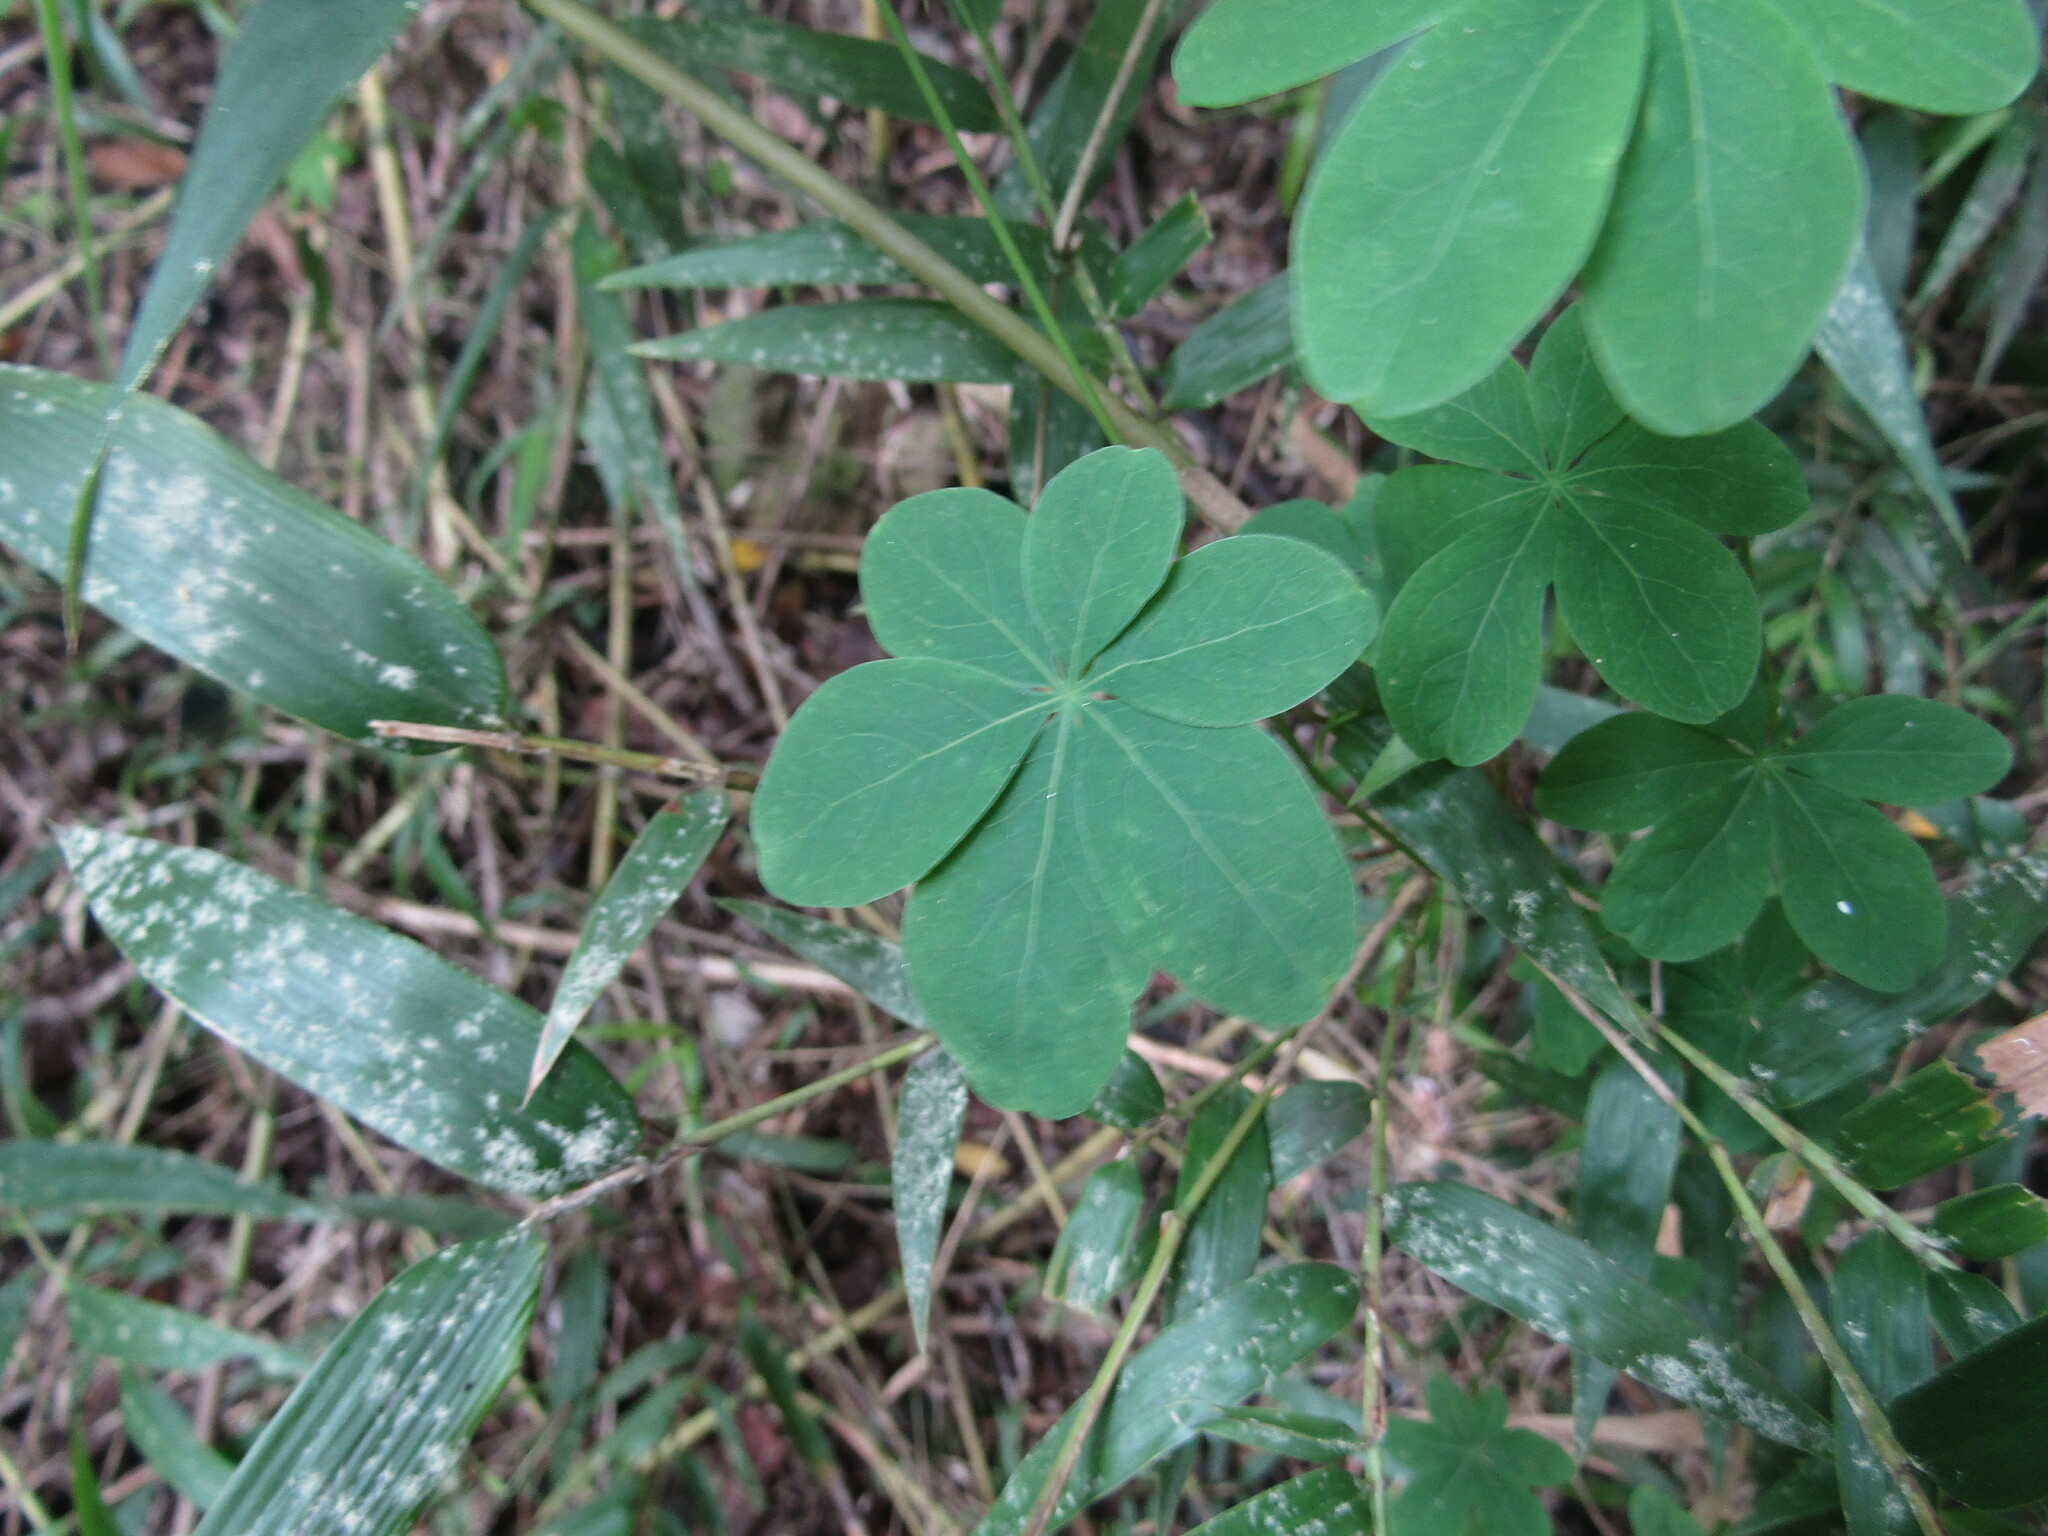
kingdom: Plantae
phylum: Tracheophyta
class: Magnoliopsida
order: Brassicales
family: Tropaeolaceae
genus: Tropaeolum
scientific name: Tropaeolum
